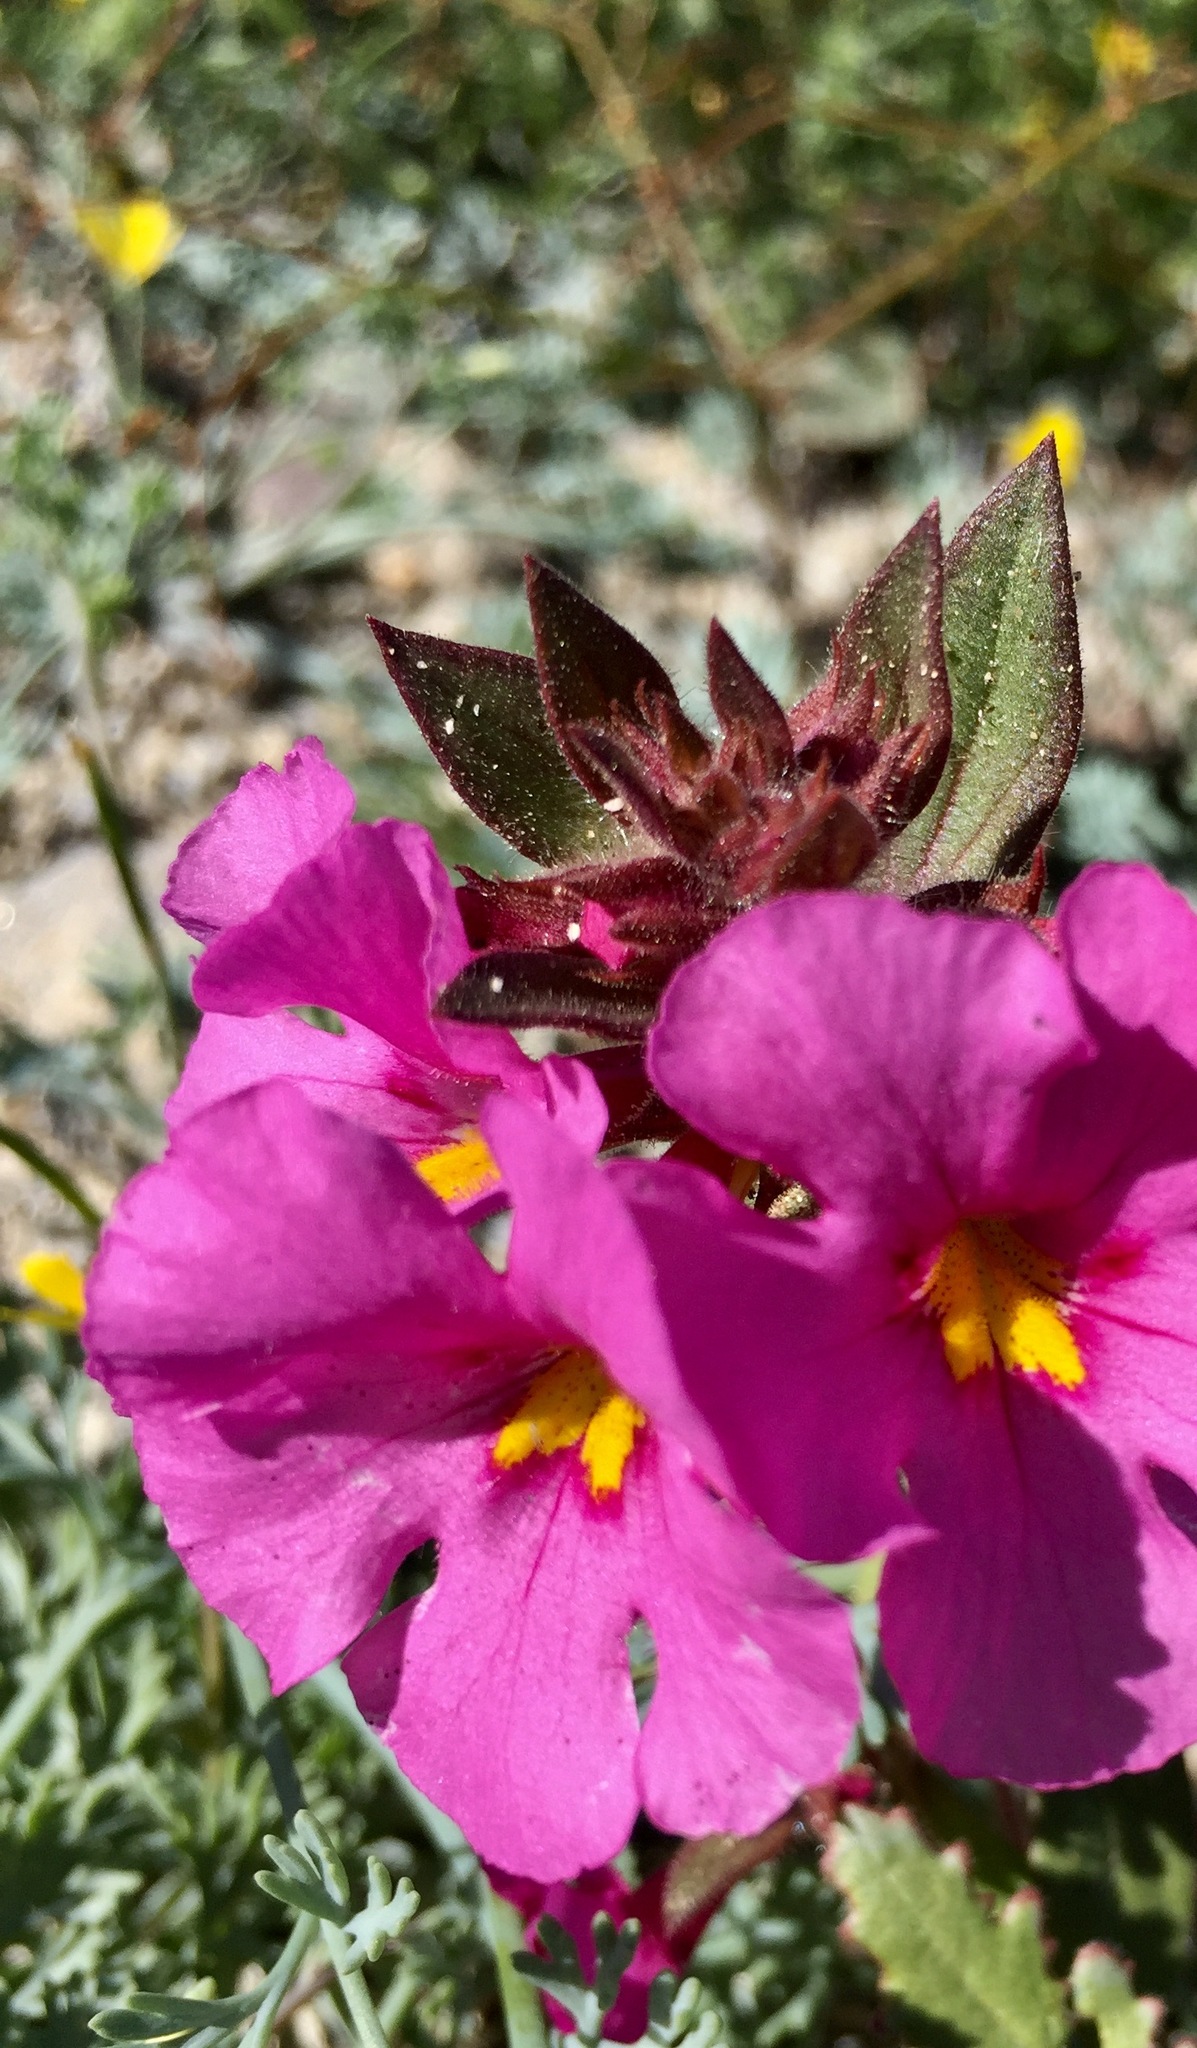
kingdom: Plantae
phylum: Tracheophyta
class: Magnoliopsida
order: Lamiales
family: Phrymaceae
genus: Diplacus
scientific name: Diplacus bigelovii
